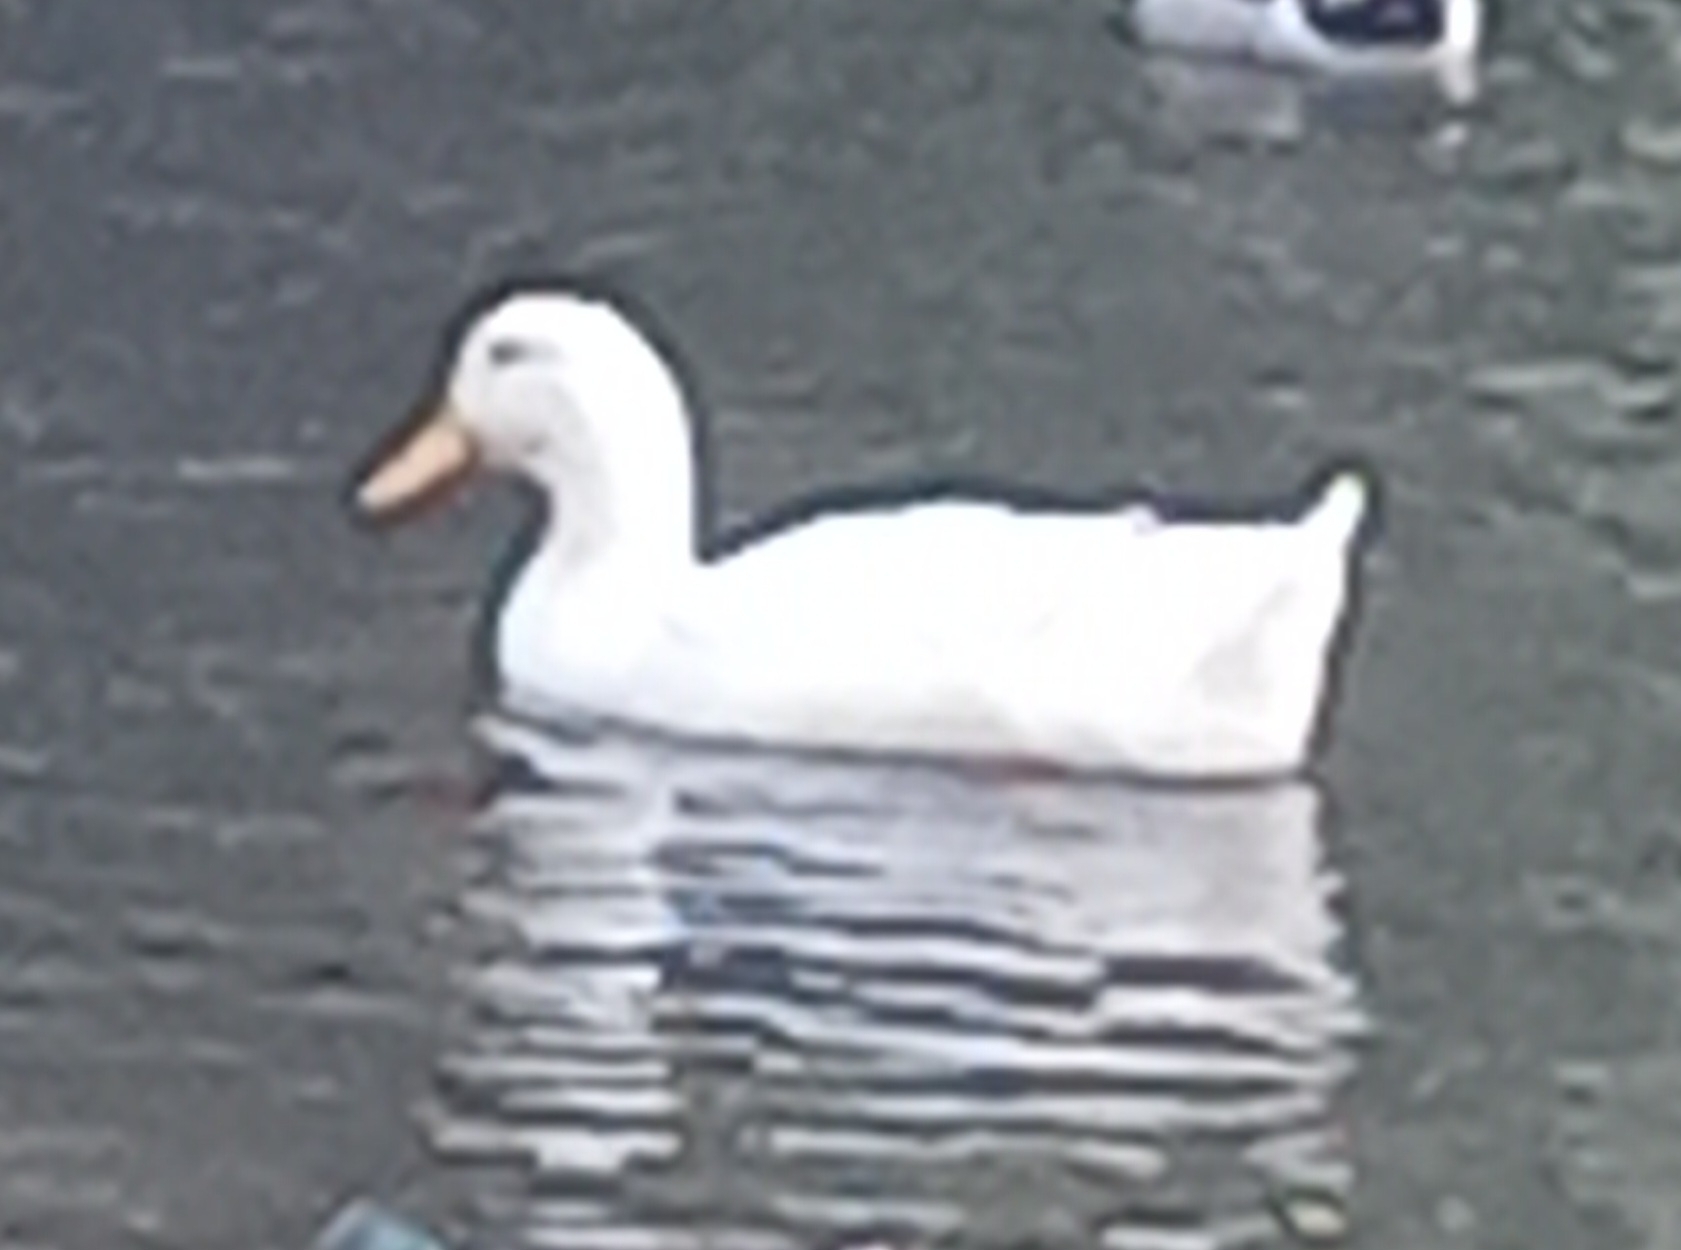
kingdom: Animalia
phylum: Chordata
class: Aves
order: Anseriformes
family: Anatidae
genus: Anas
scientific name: Anas platyrhynchos
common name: Mallard
